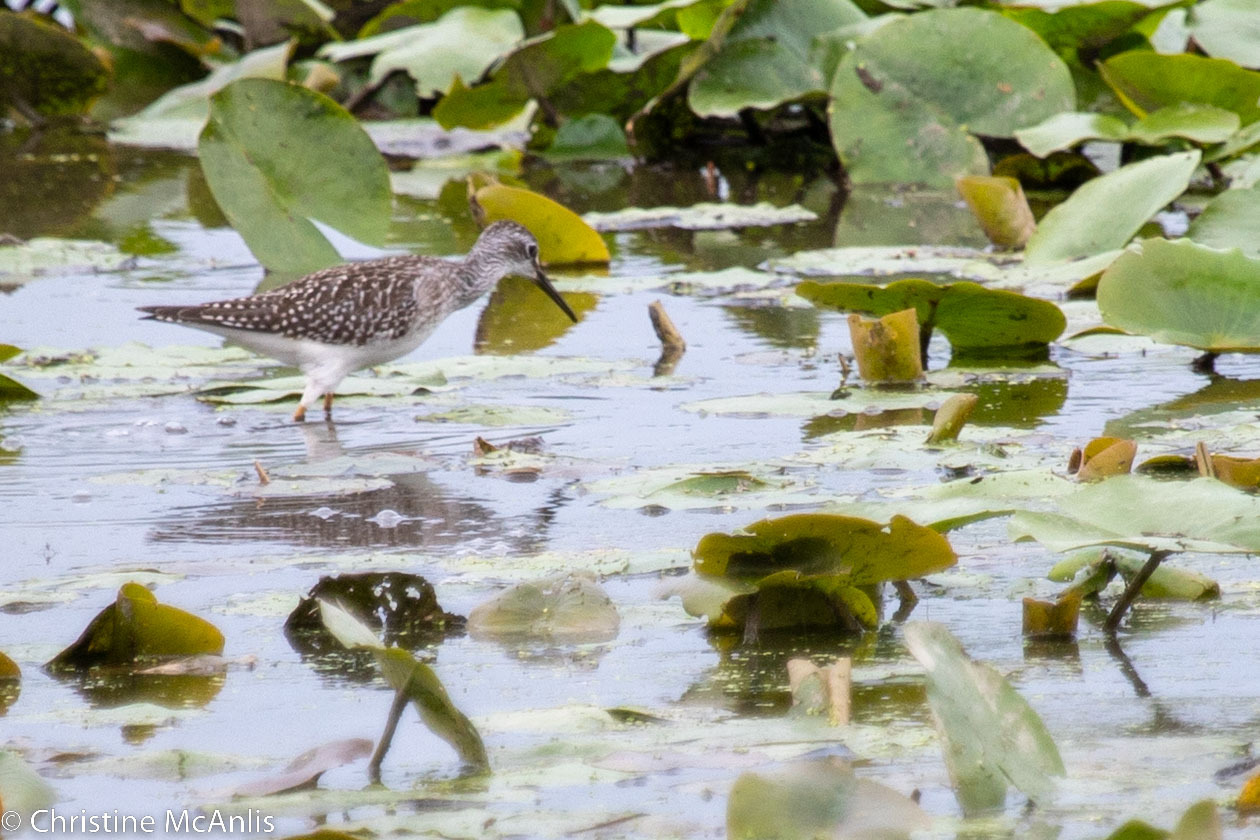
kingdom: Animalia
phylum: Chordata
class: Aves
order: Charadriiformes
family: Scolopacidae
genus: Tringa
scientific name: Tringa flavipes
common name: Lesser yellowlegs
